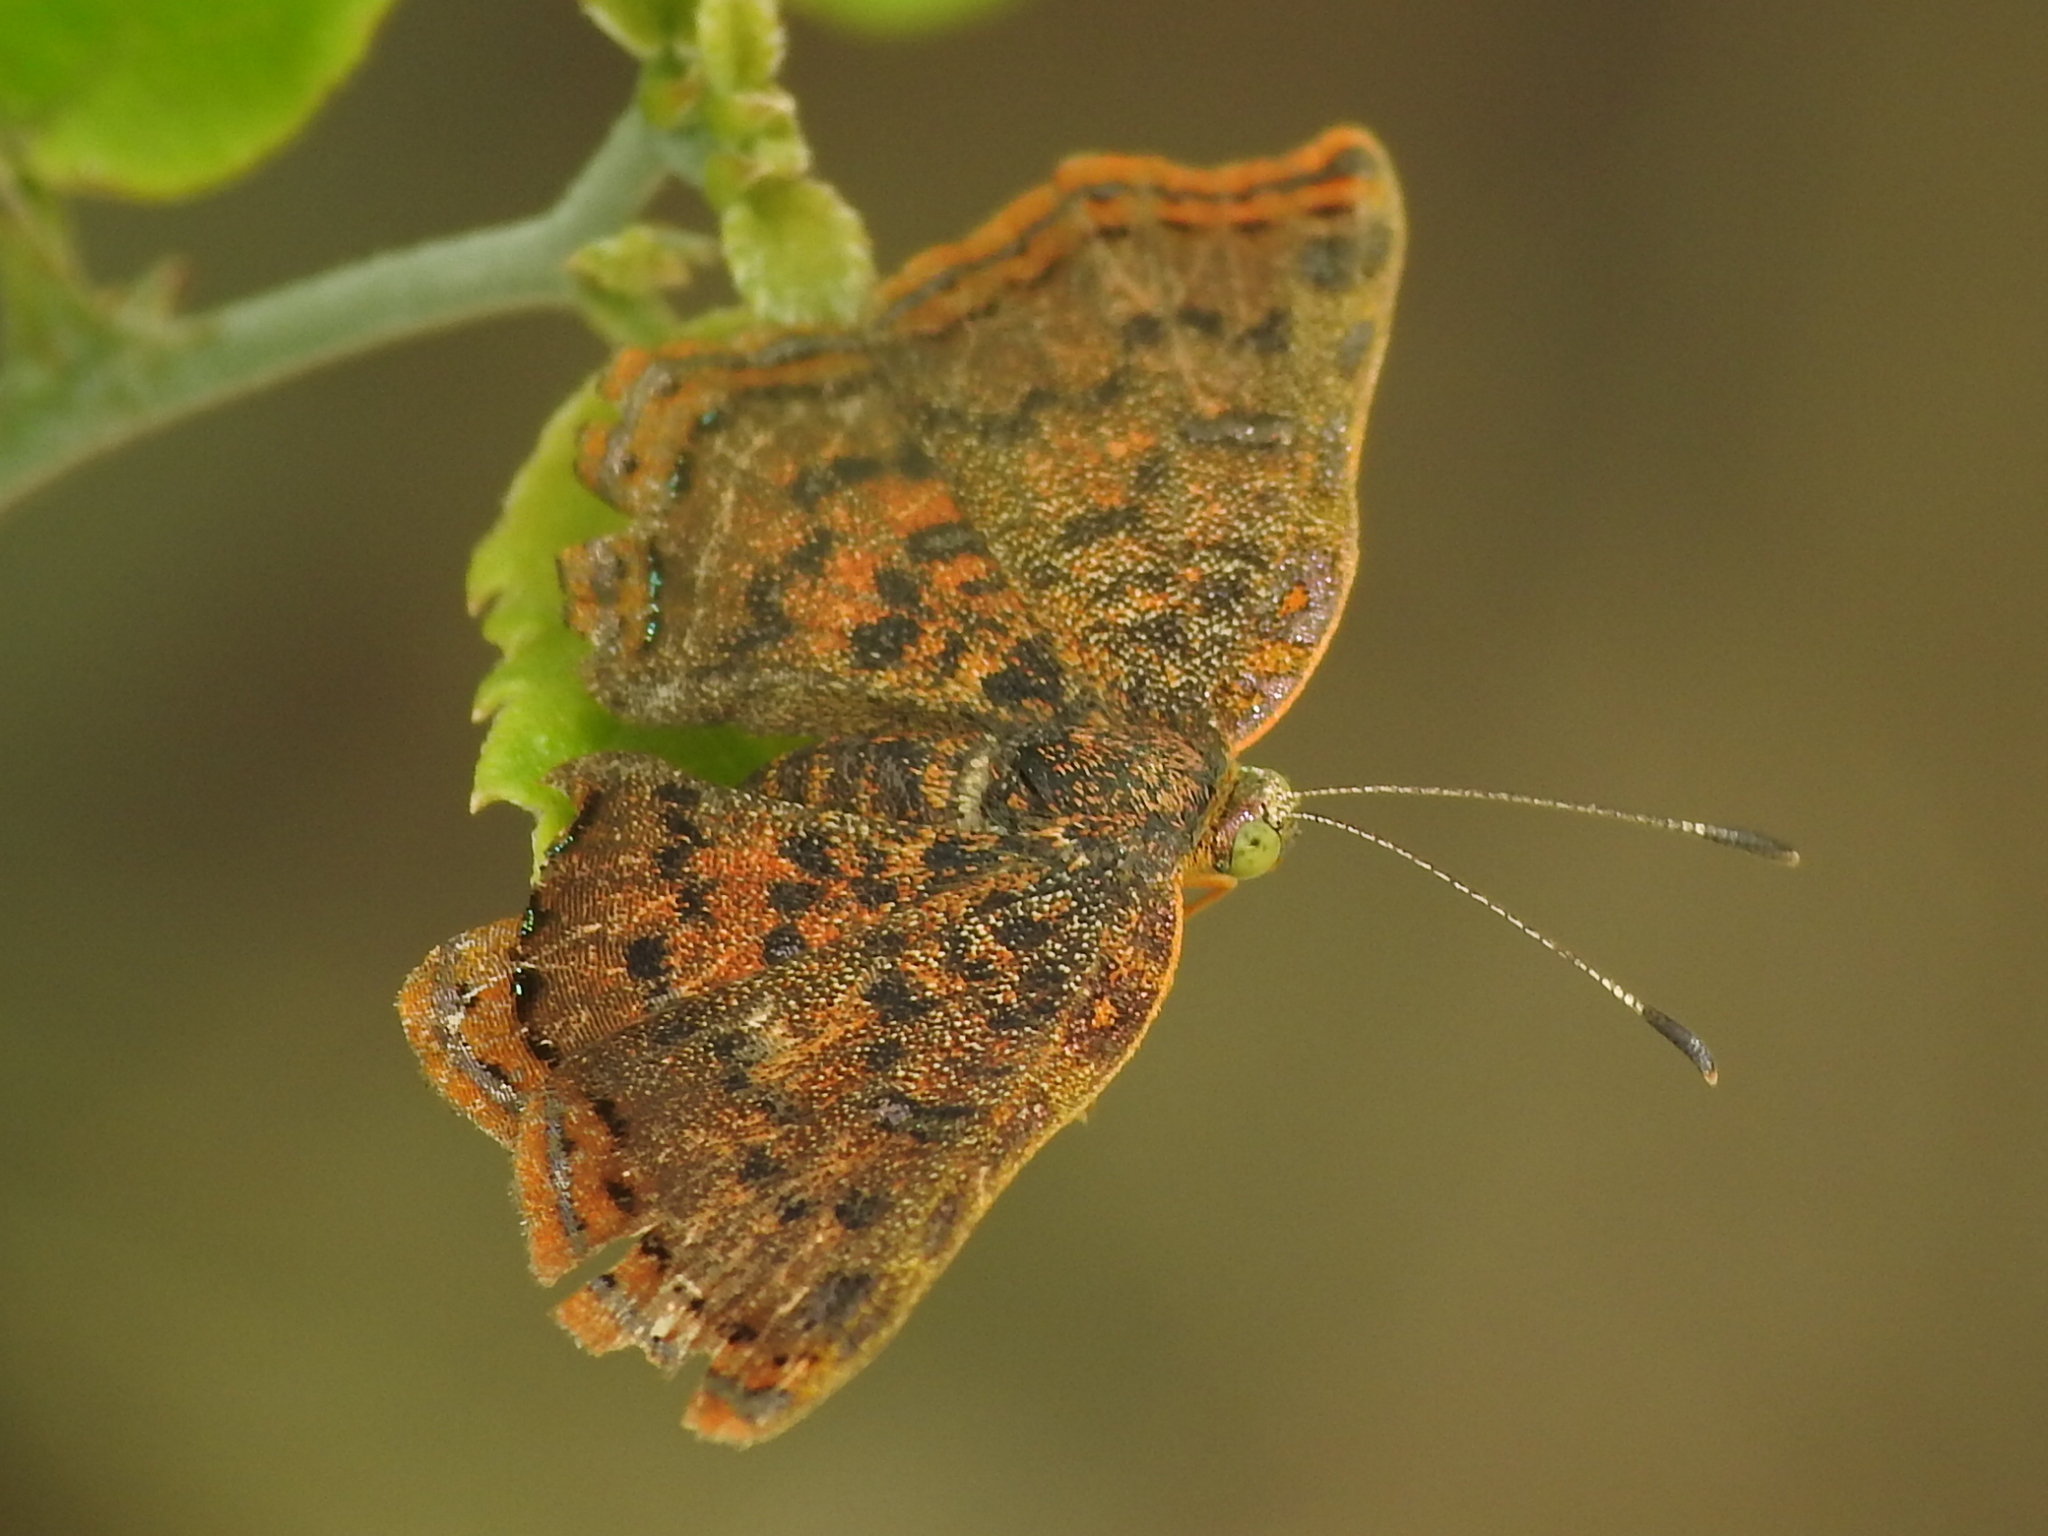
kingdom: Animalia
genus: Caria
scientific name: Caria ino
